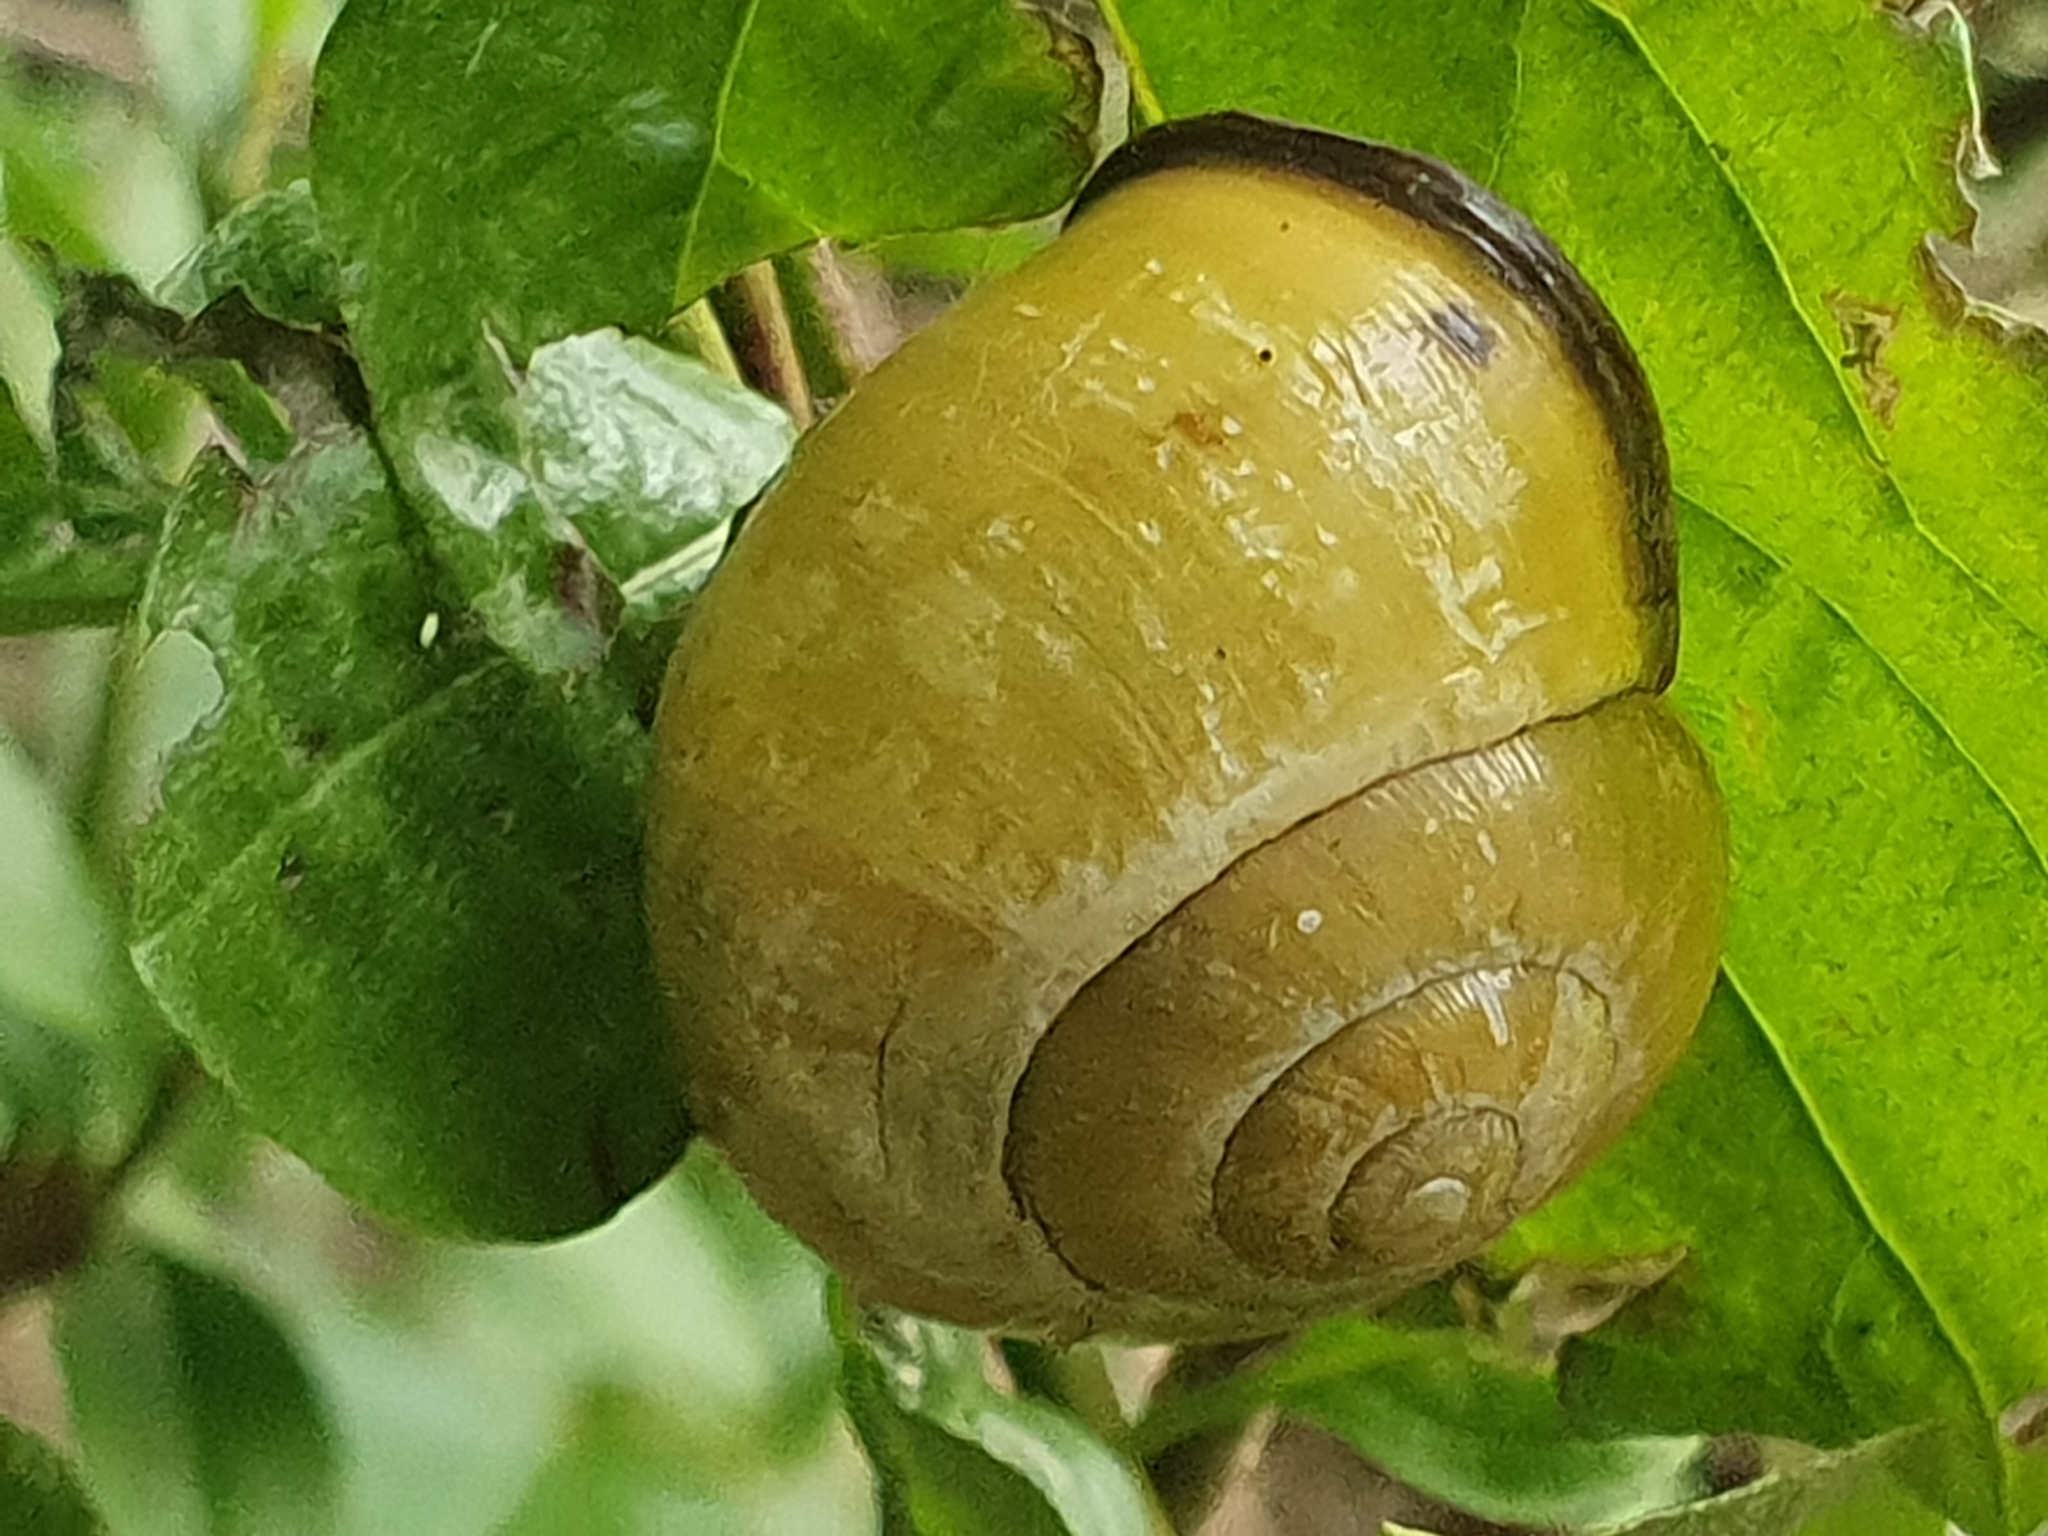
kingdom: Animalia
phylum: Mollusca
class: Gastropoda
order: Stylommatophora
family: Helicidae
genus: Cepaea
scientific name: Cepaea nemoralis
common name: Grovesnail
